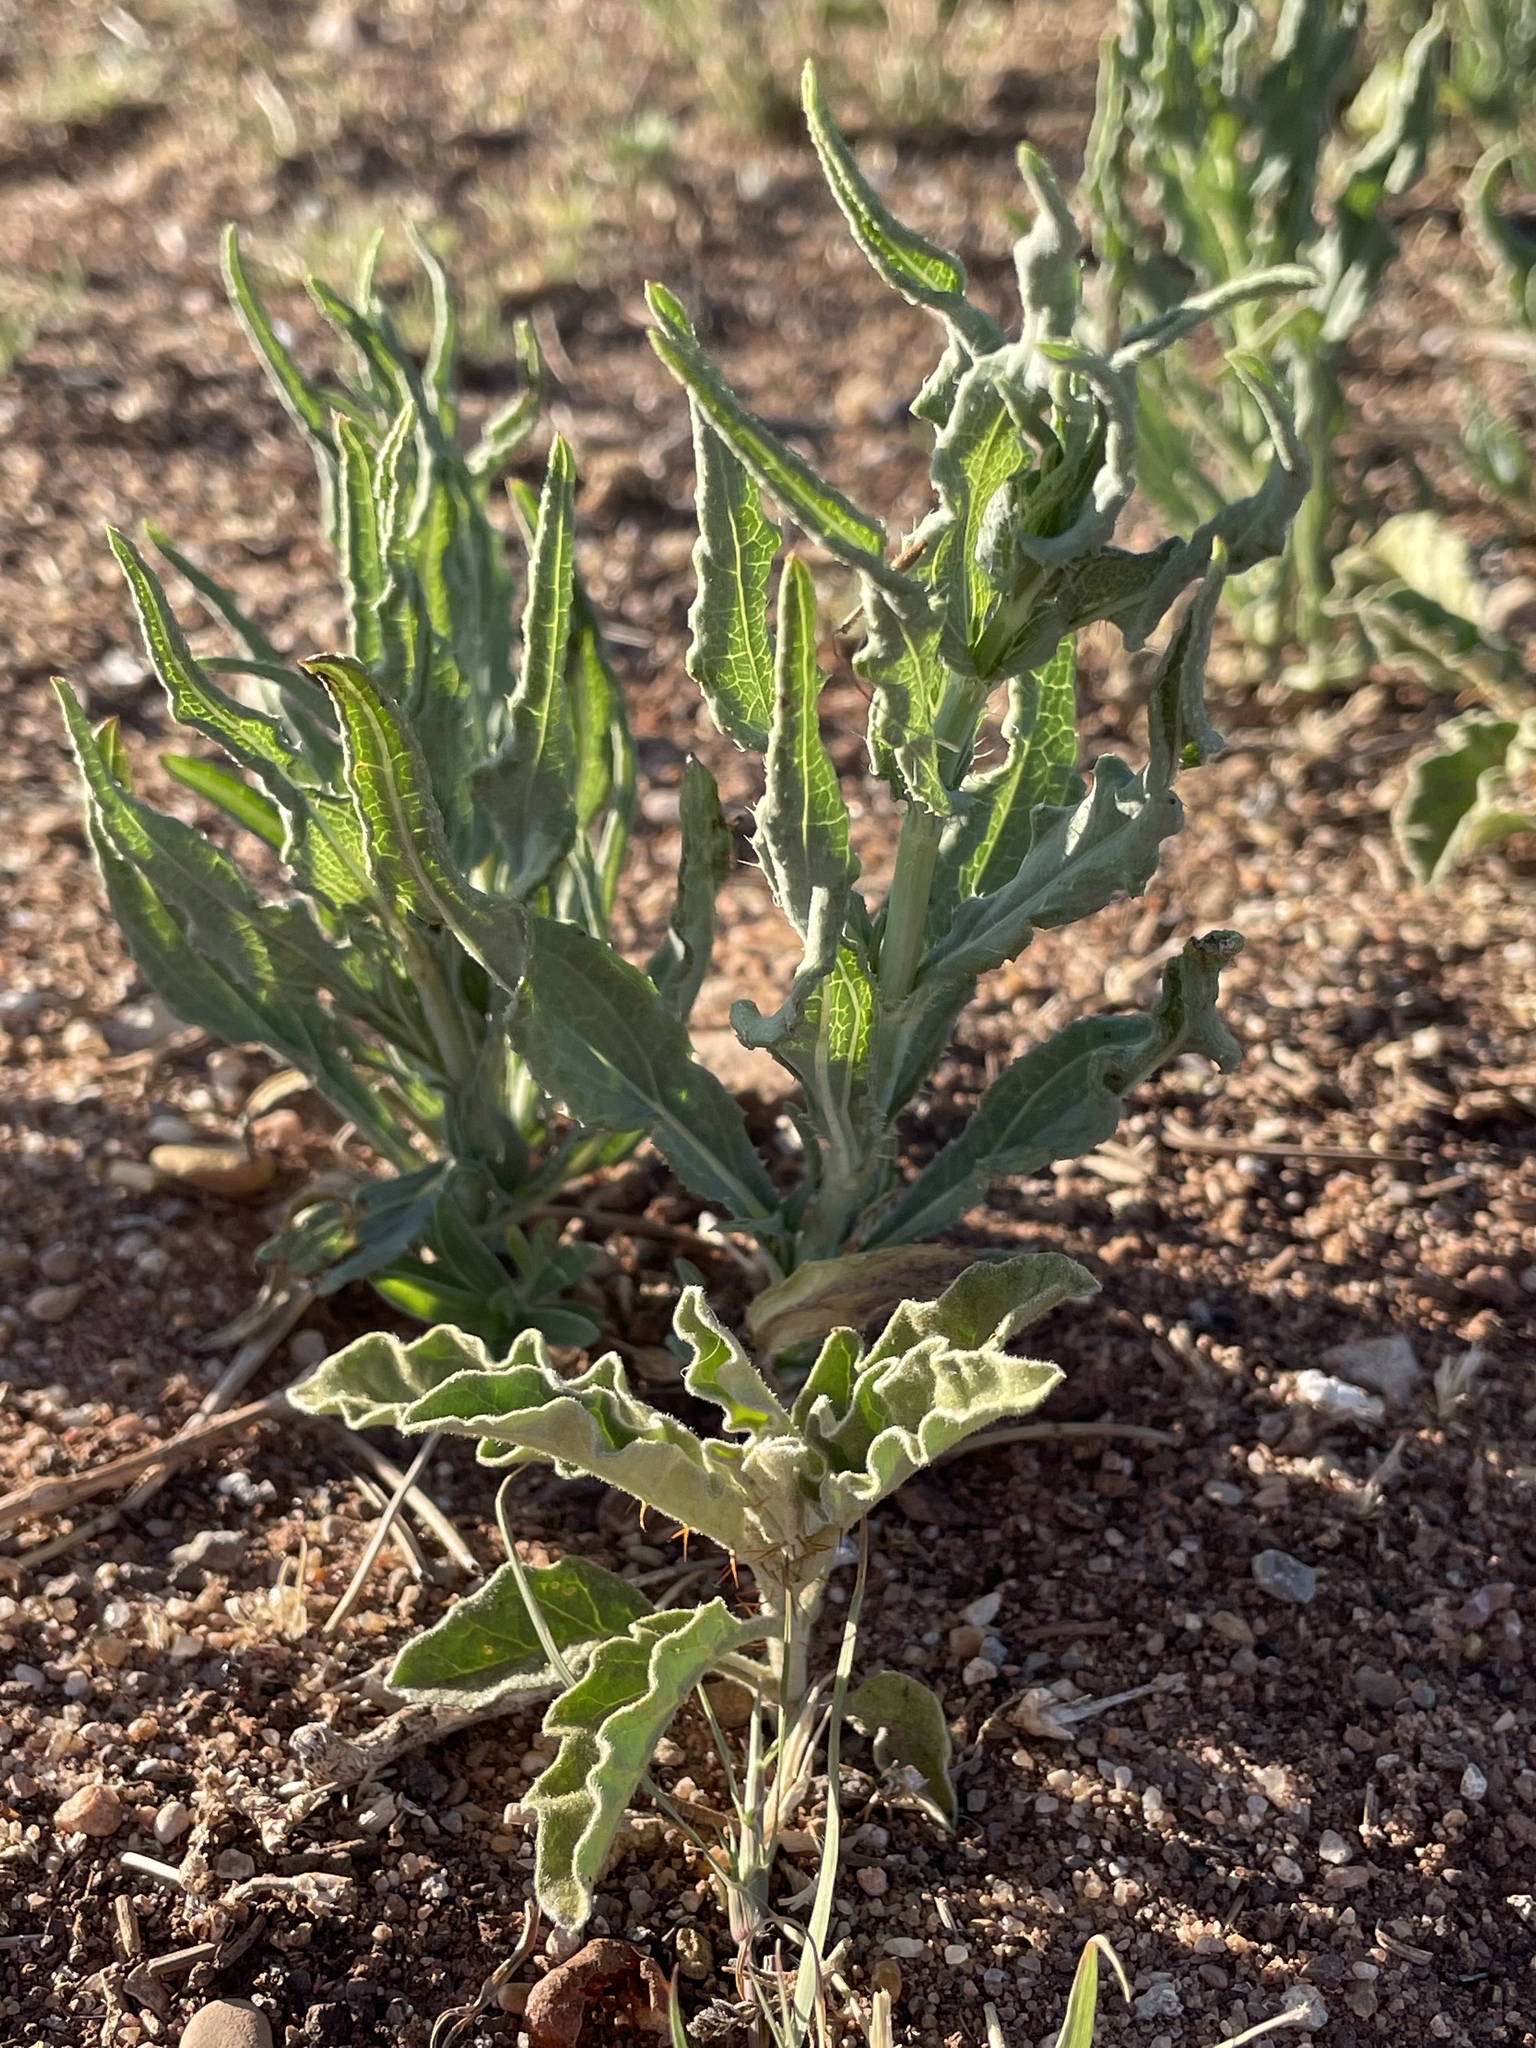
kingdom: Plantae
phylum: Tracheophyta
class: Magnoliopsida
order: Brassicales
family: Brassicaceae
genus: Dimorphocarpa
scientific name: Dimorphocarpa wislizenii
